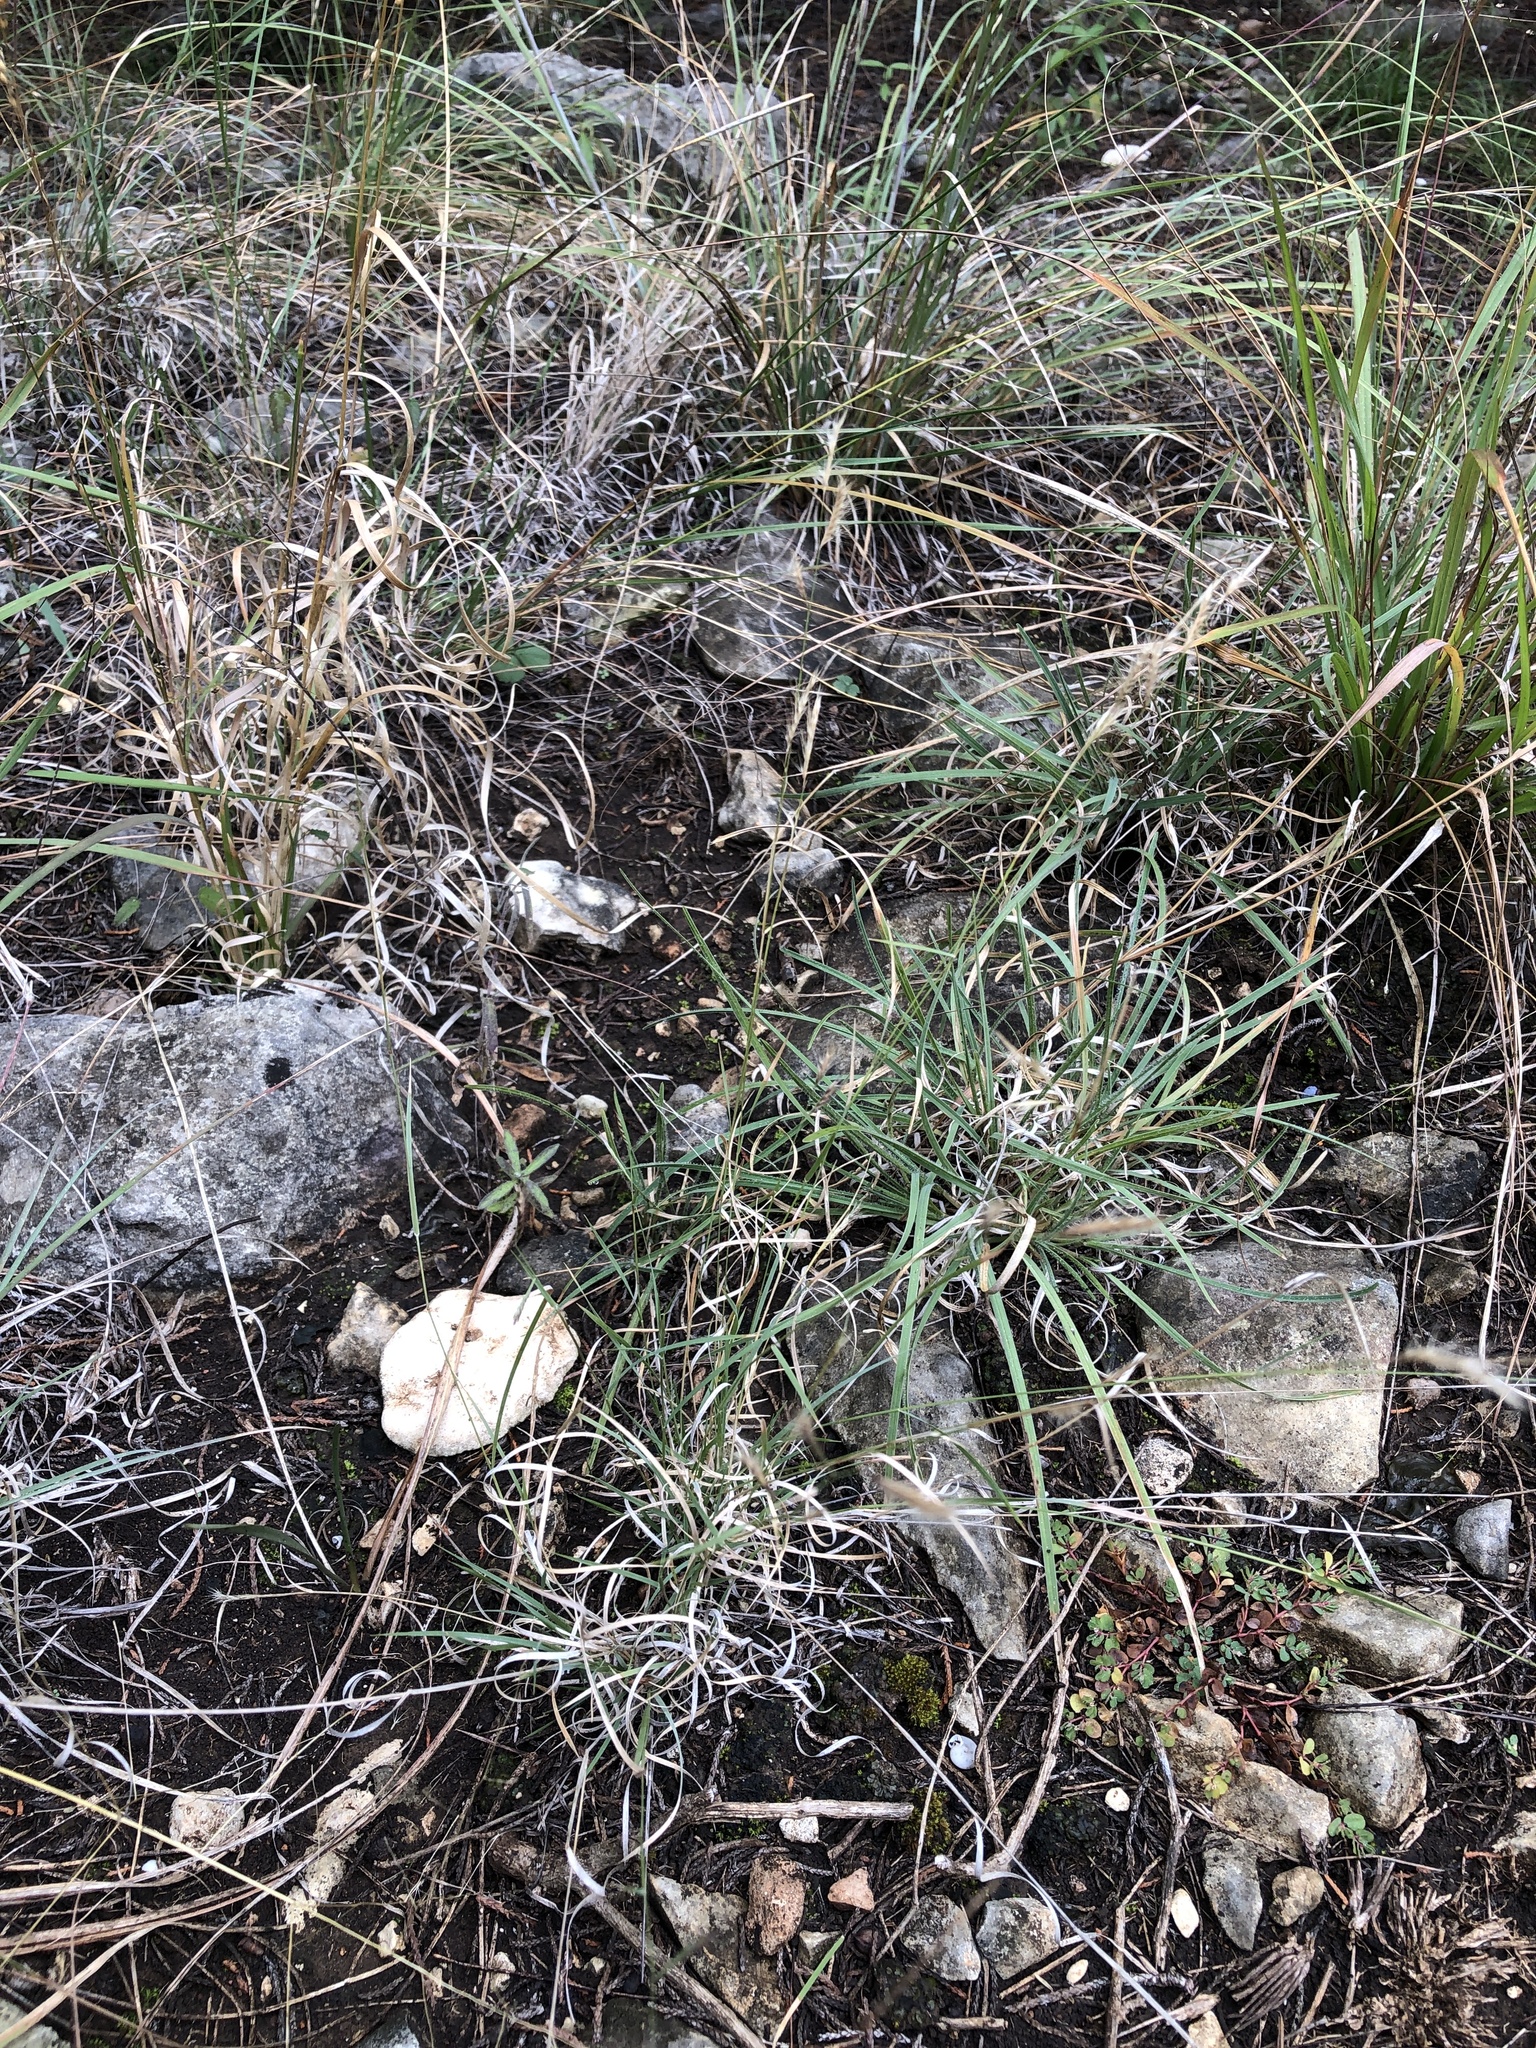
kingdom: Plantae
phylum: Tracheophyta
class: Liliopsida
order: Poales
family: Poaceae
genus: Bouteloua
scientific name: Bouteloua trifida
